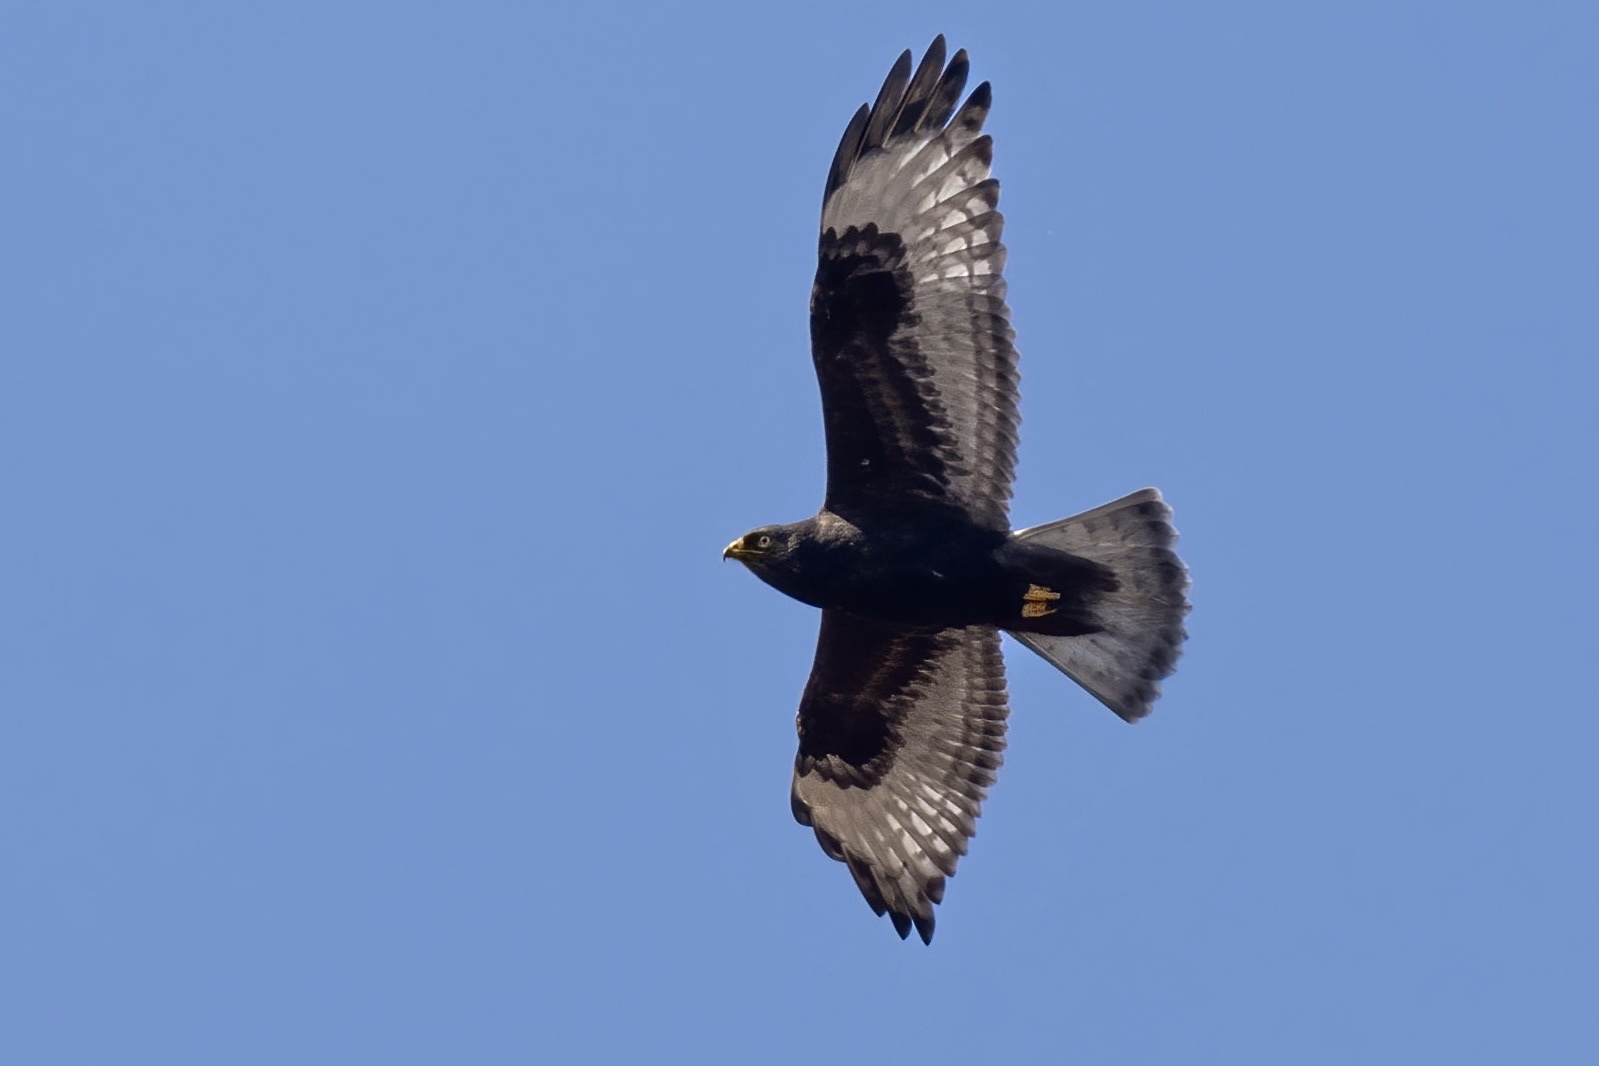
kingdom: Animalia
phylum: Chordata
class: Aves
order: Accipitriformes
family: Accipitridae
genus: Buteo
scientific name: Buteo lagopus
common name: Rough-legged buzzard
